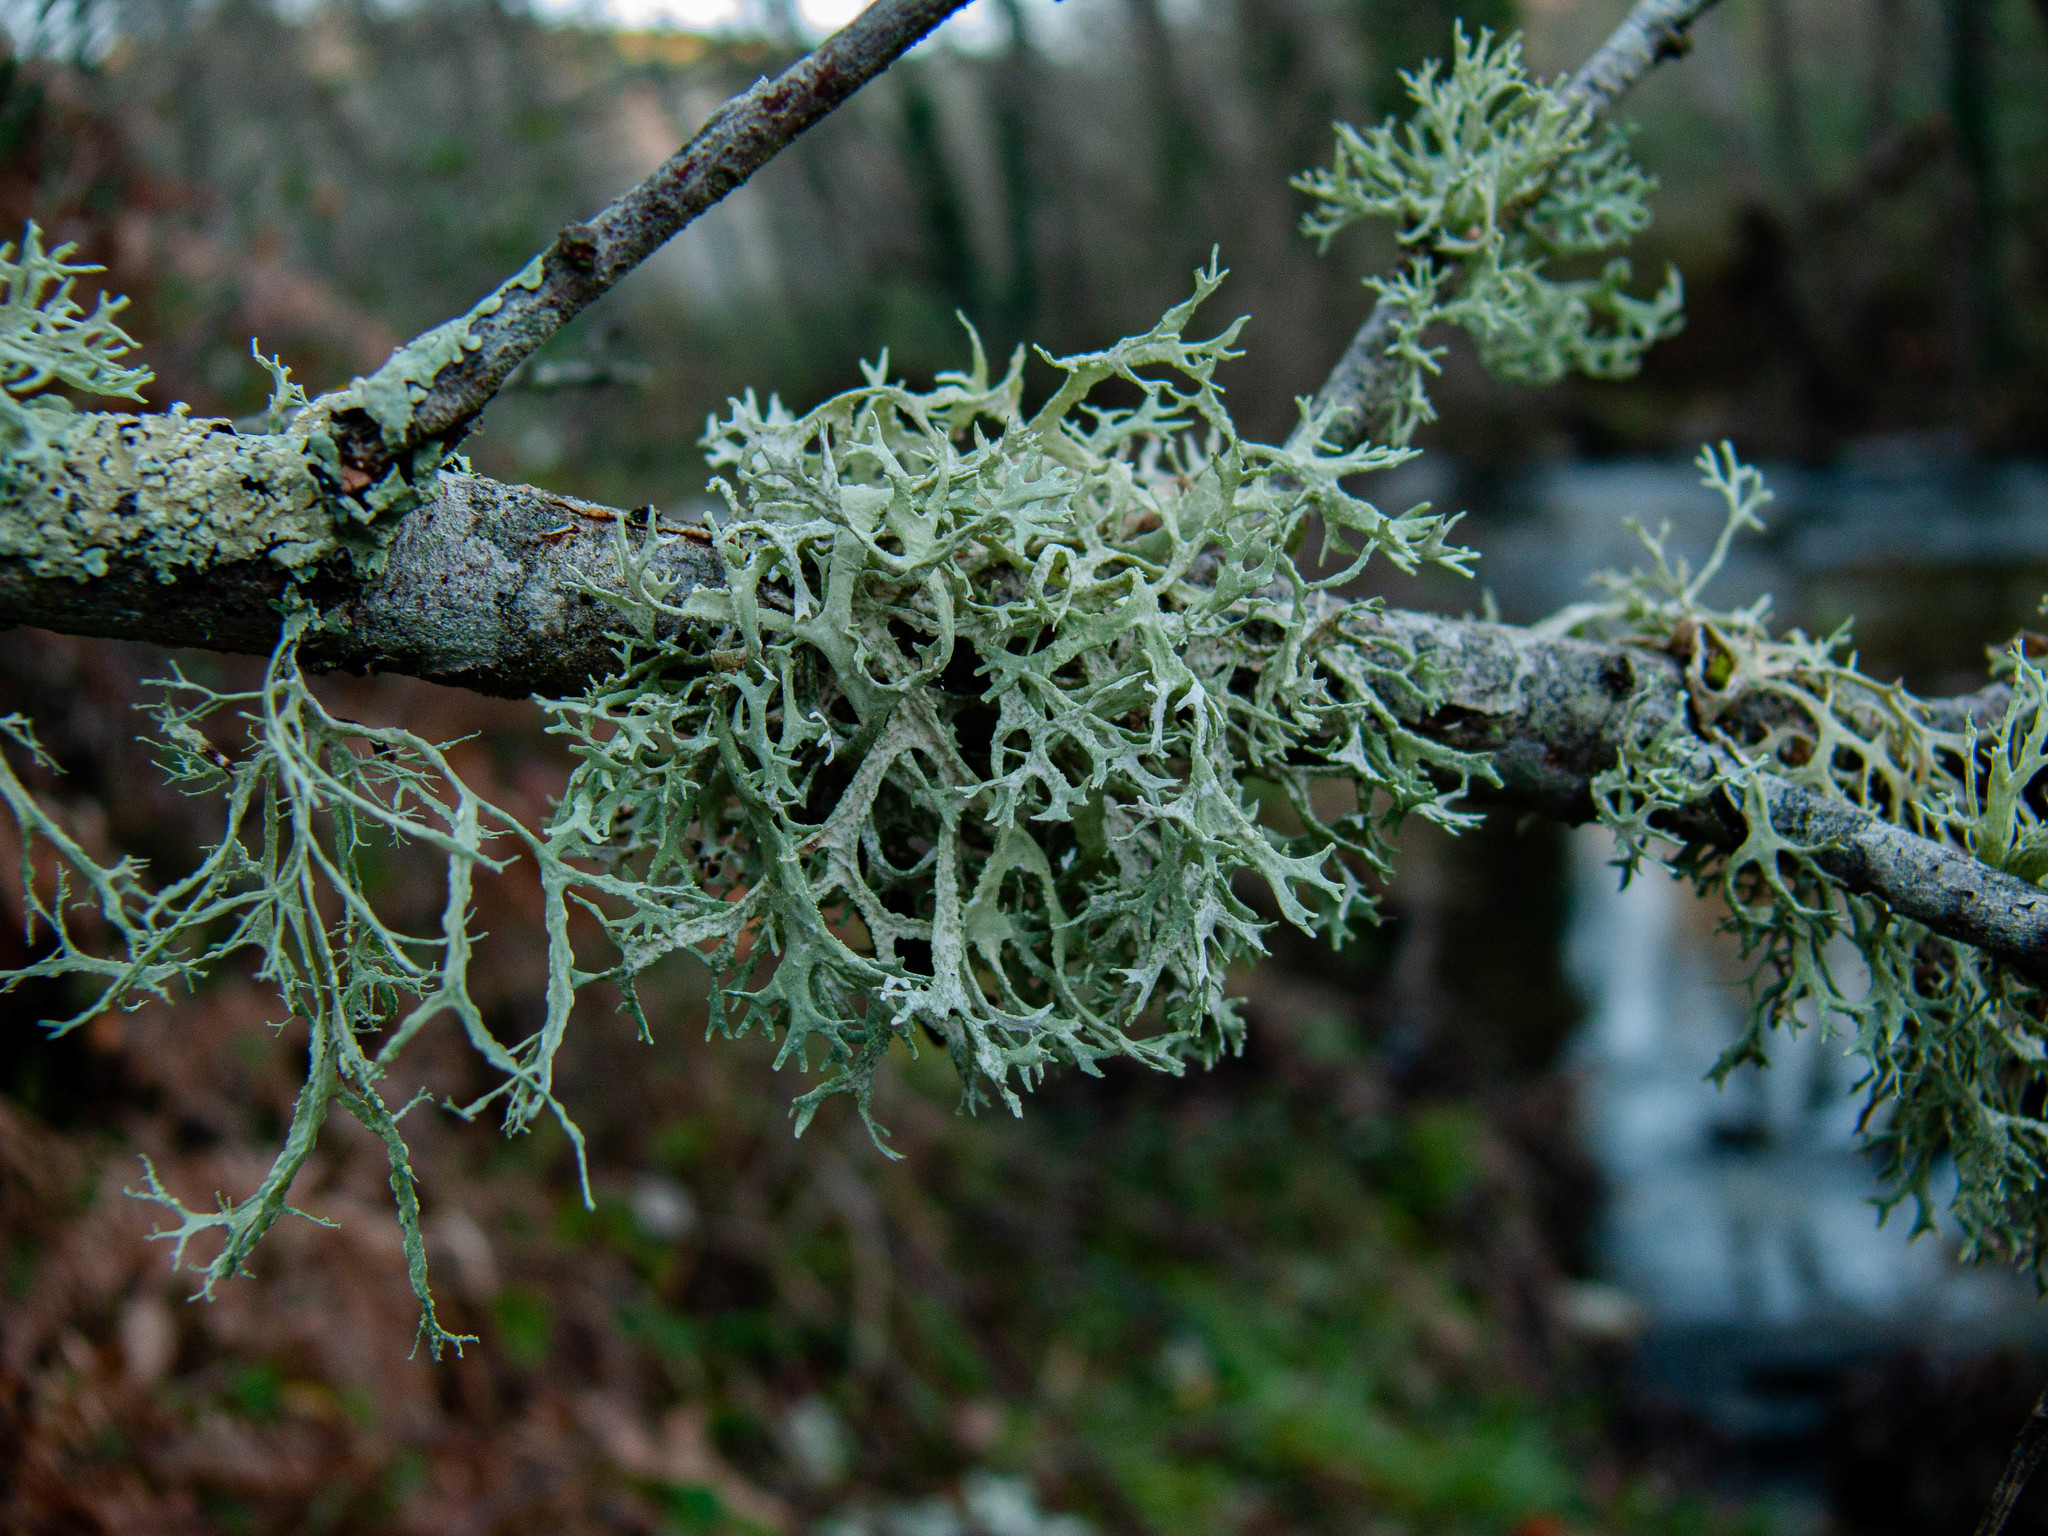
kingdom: Fungi
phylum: Ascomycota
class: Lecanoromycetes
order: Lecanorales
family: Parmeliaceae
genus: Evernia
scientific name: Evernia prunastri
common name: Oak moss
